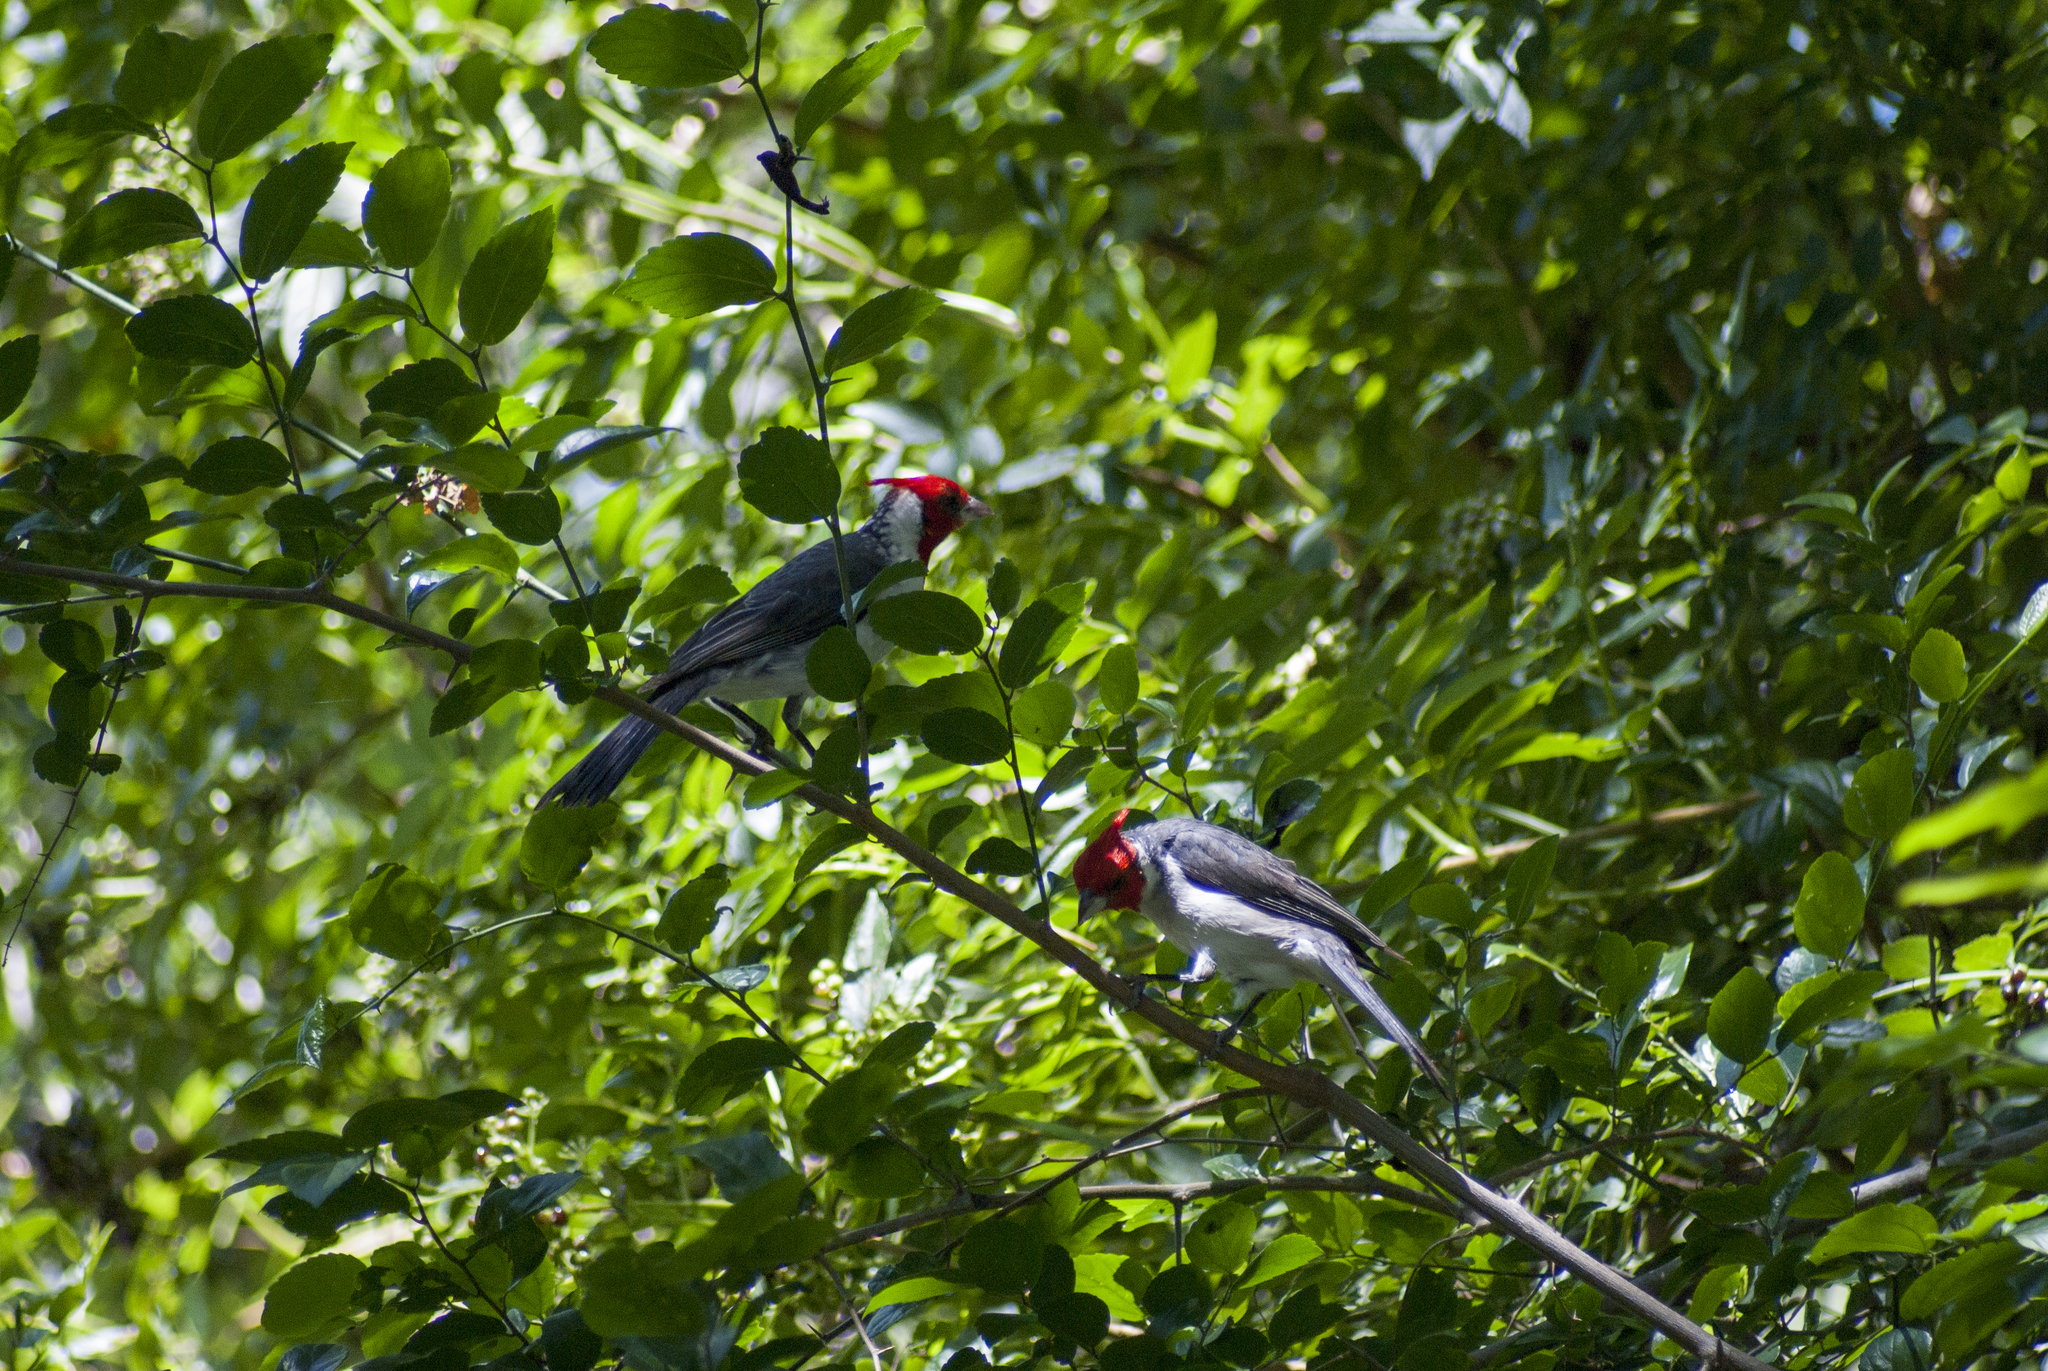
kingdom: Animalia
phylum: Chordata
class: Aves
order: Passeriformes
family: Thraupidae
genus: Paroaria
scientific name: Paroaria coronata
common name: Red-crested cardinal
